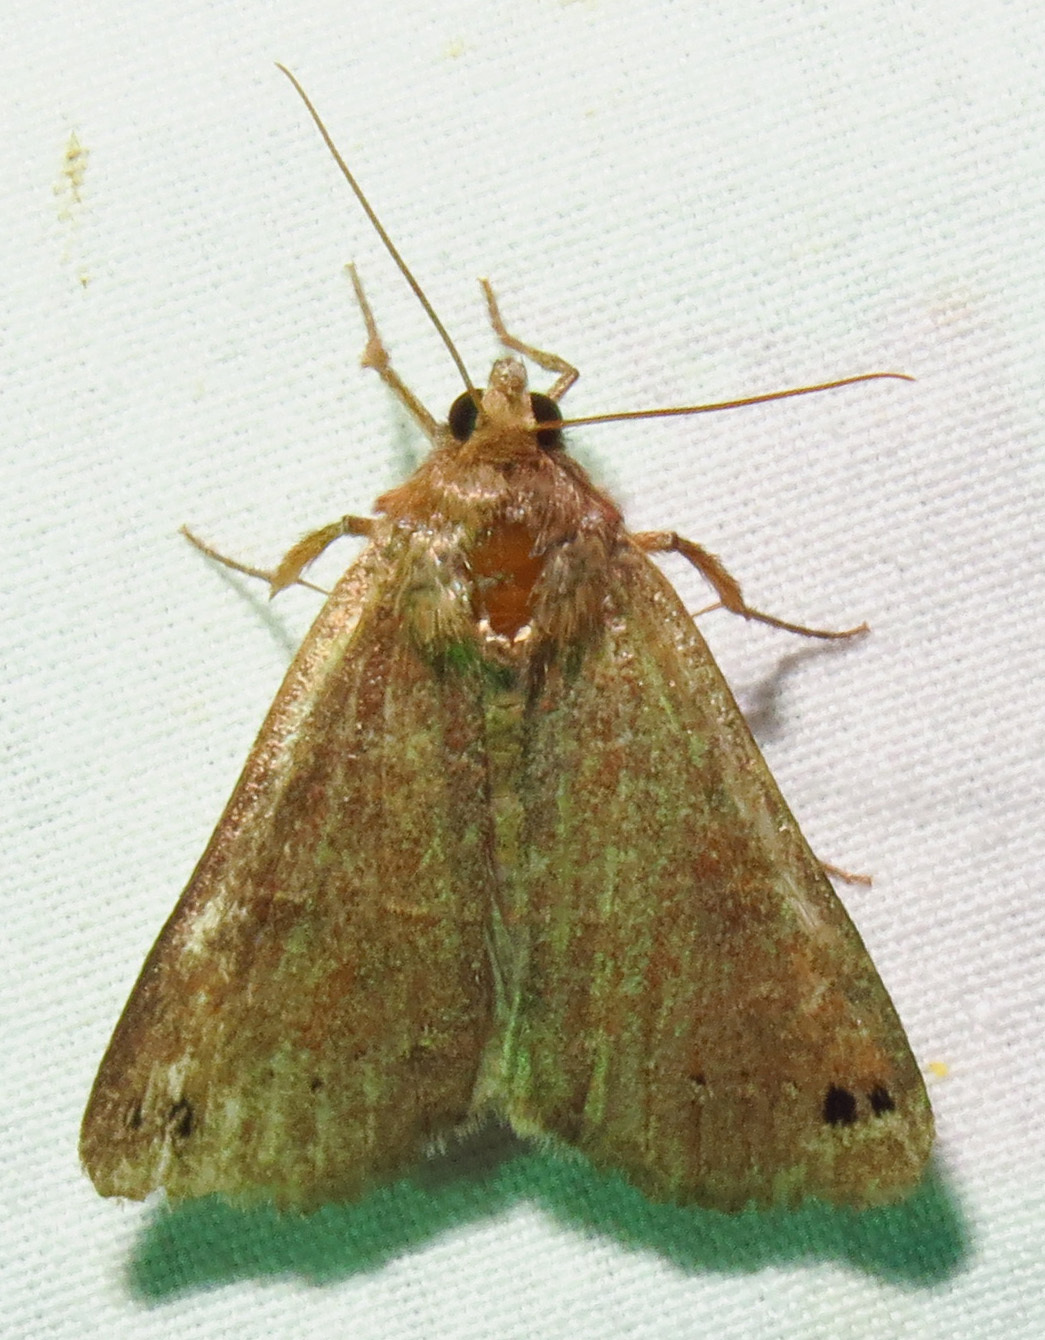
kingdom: Animalia
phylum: Arthropoda
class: Insecta
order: Lepidoptera
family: Erebidae
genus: Cissusa
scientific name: Cissusa spadix
